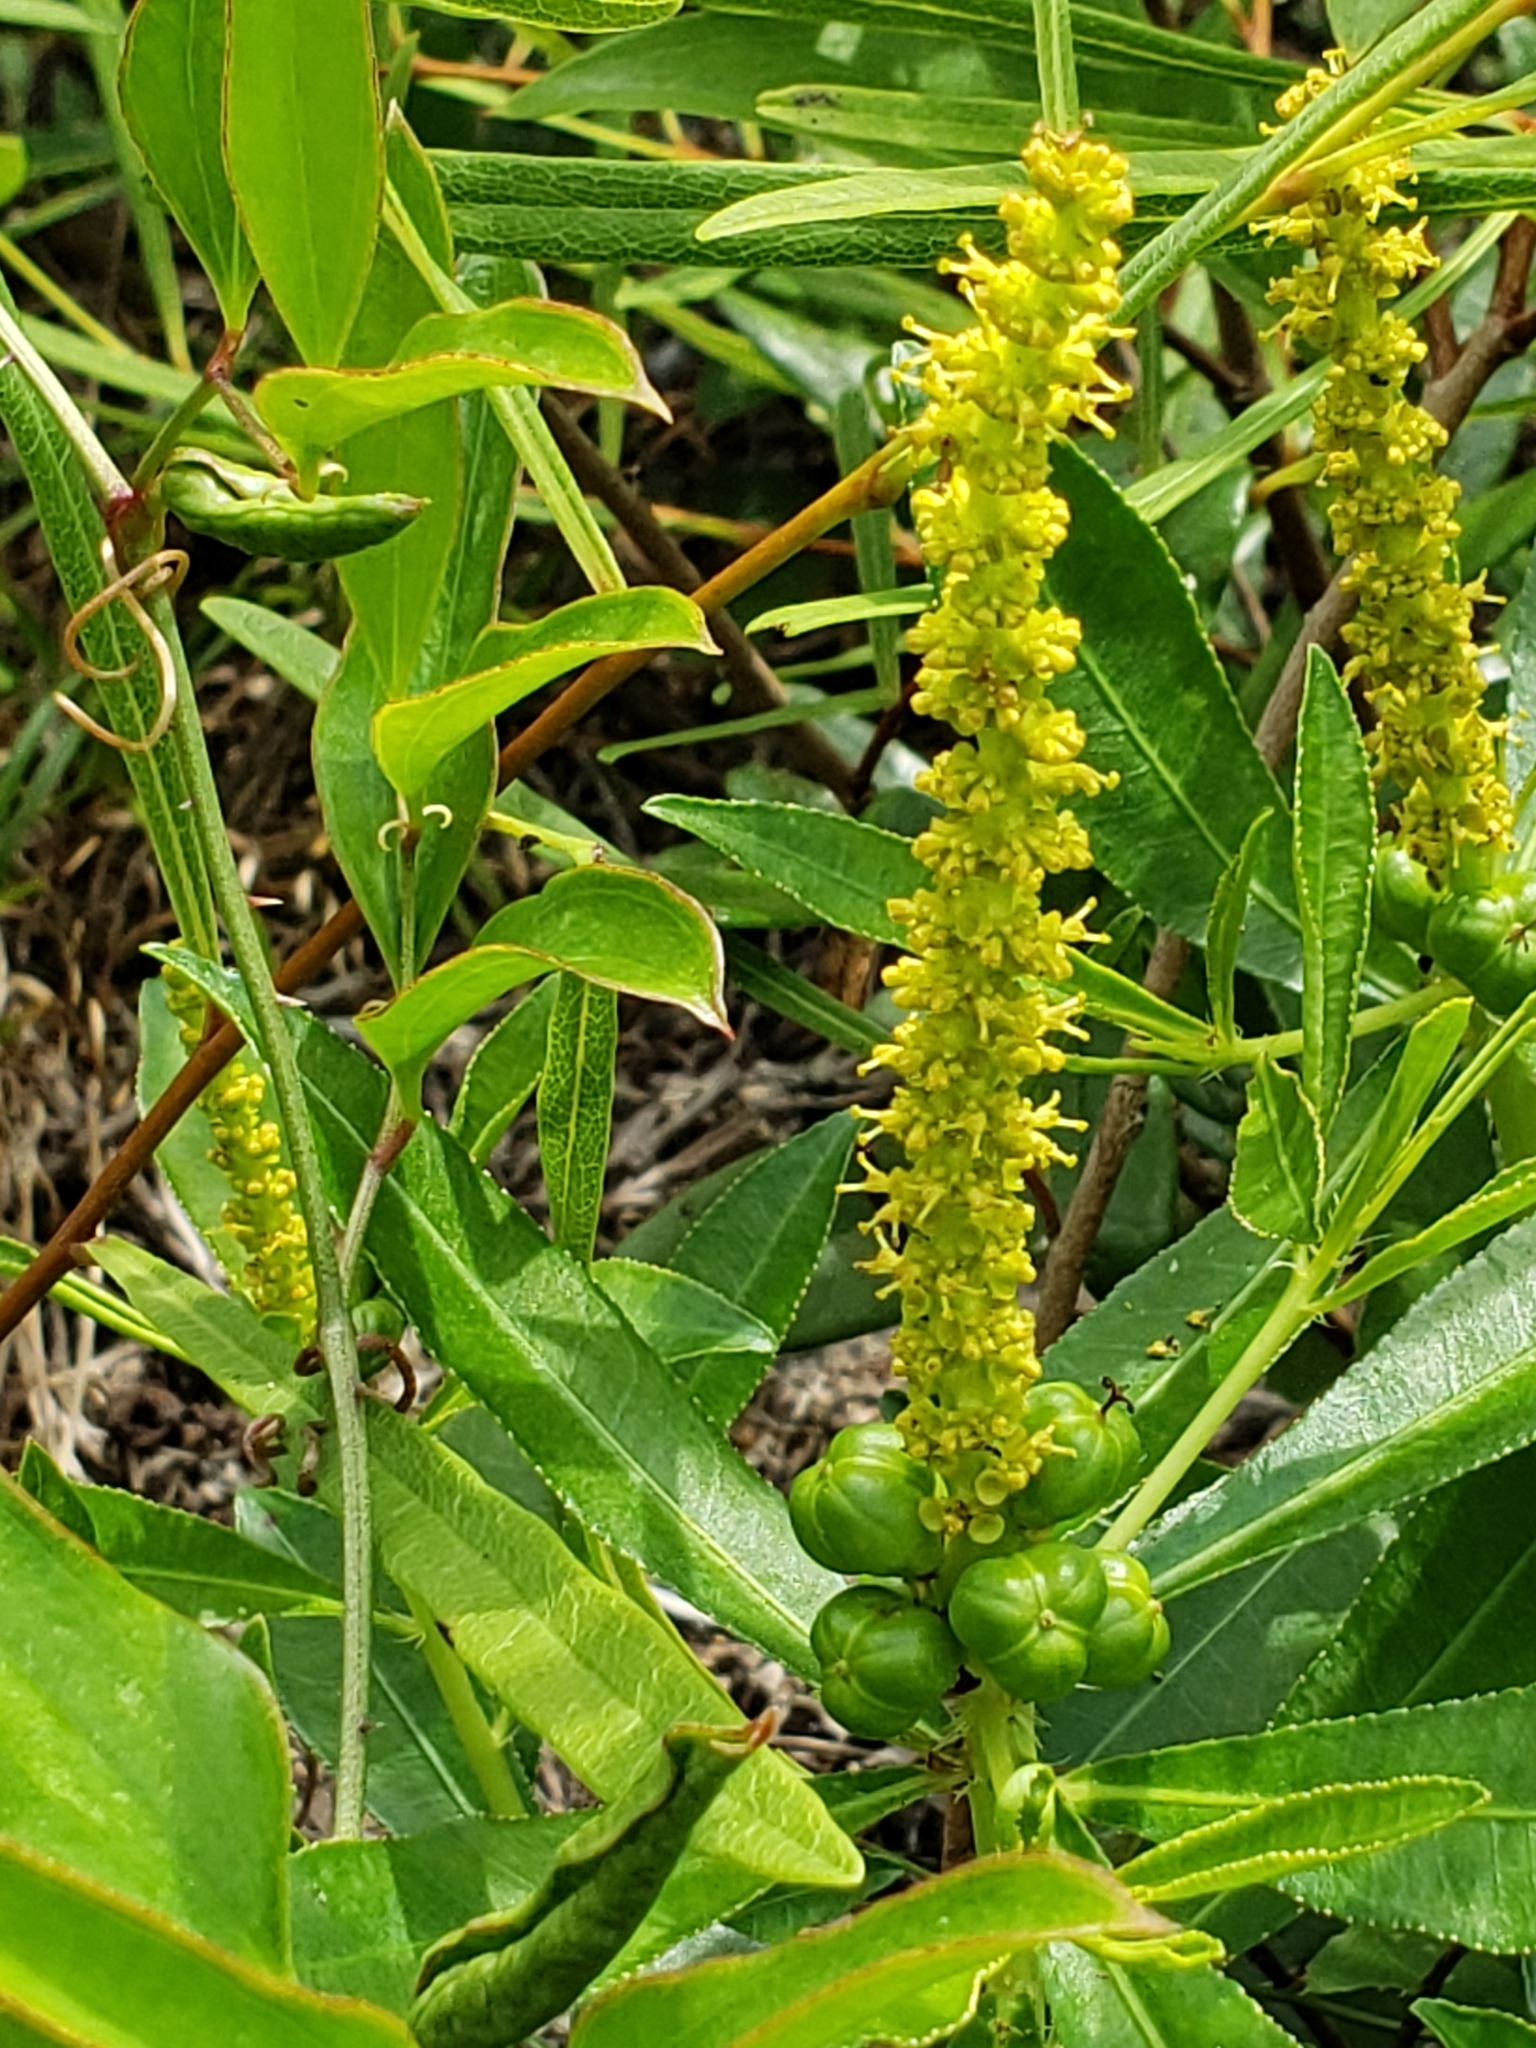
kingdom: Plantae
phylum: Tracheophyta
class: Magnoliopsida
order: Malpighiales
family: Euphorbiaceae
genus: Stillingia
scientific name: Stillingia sylvatica
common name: Queen's-delight
